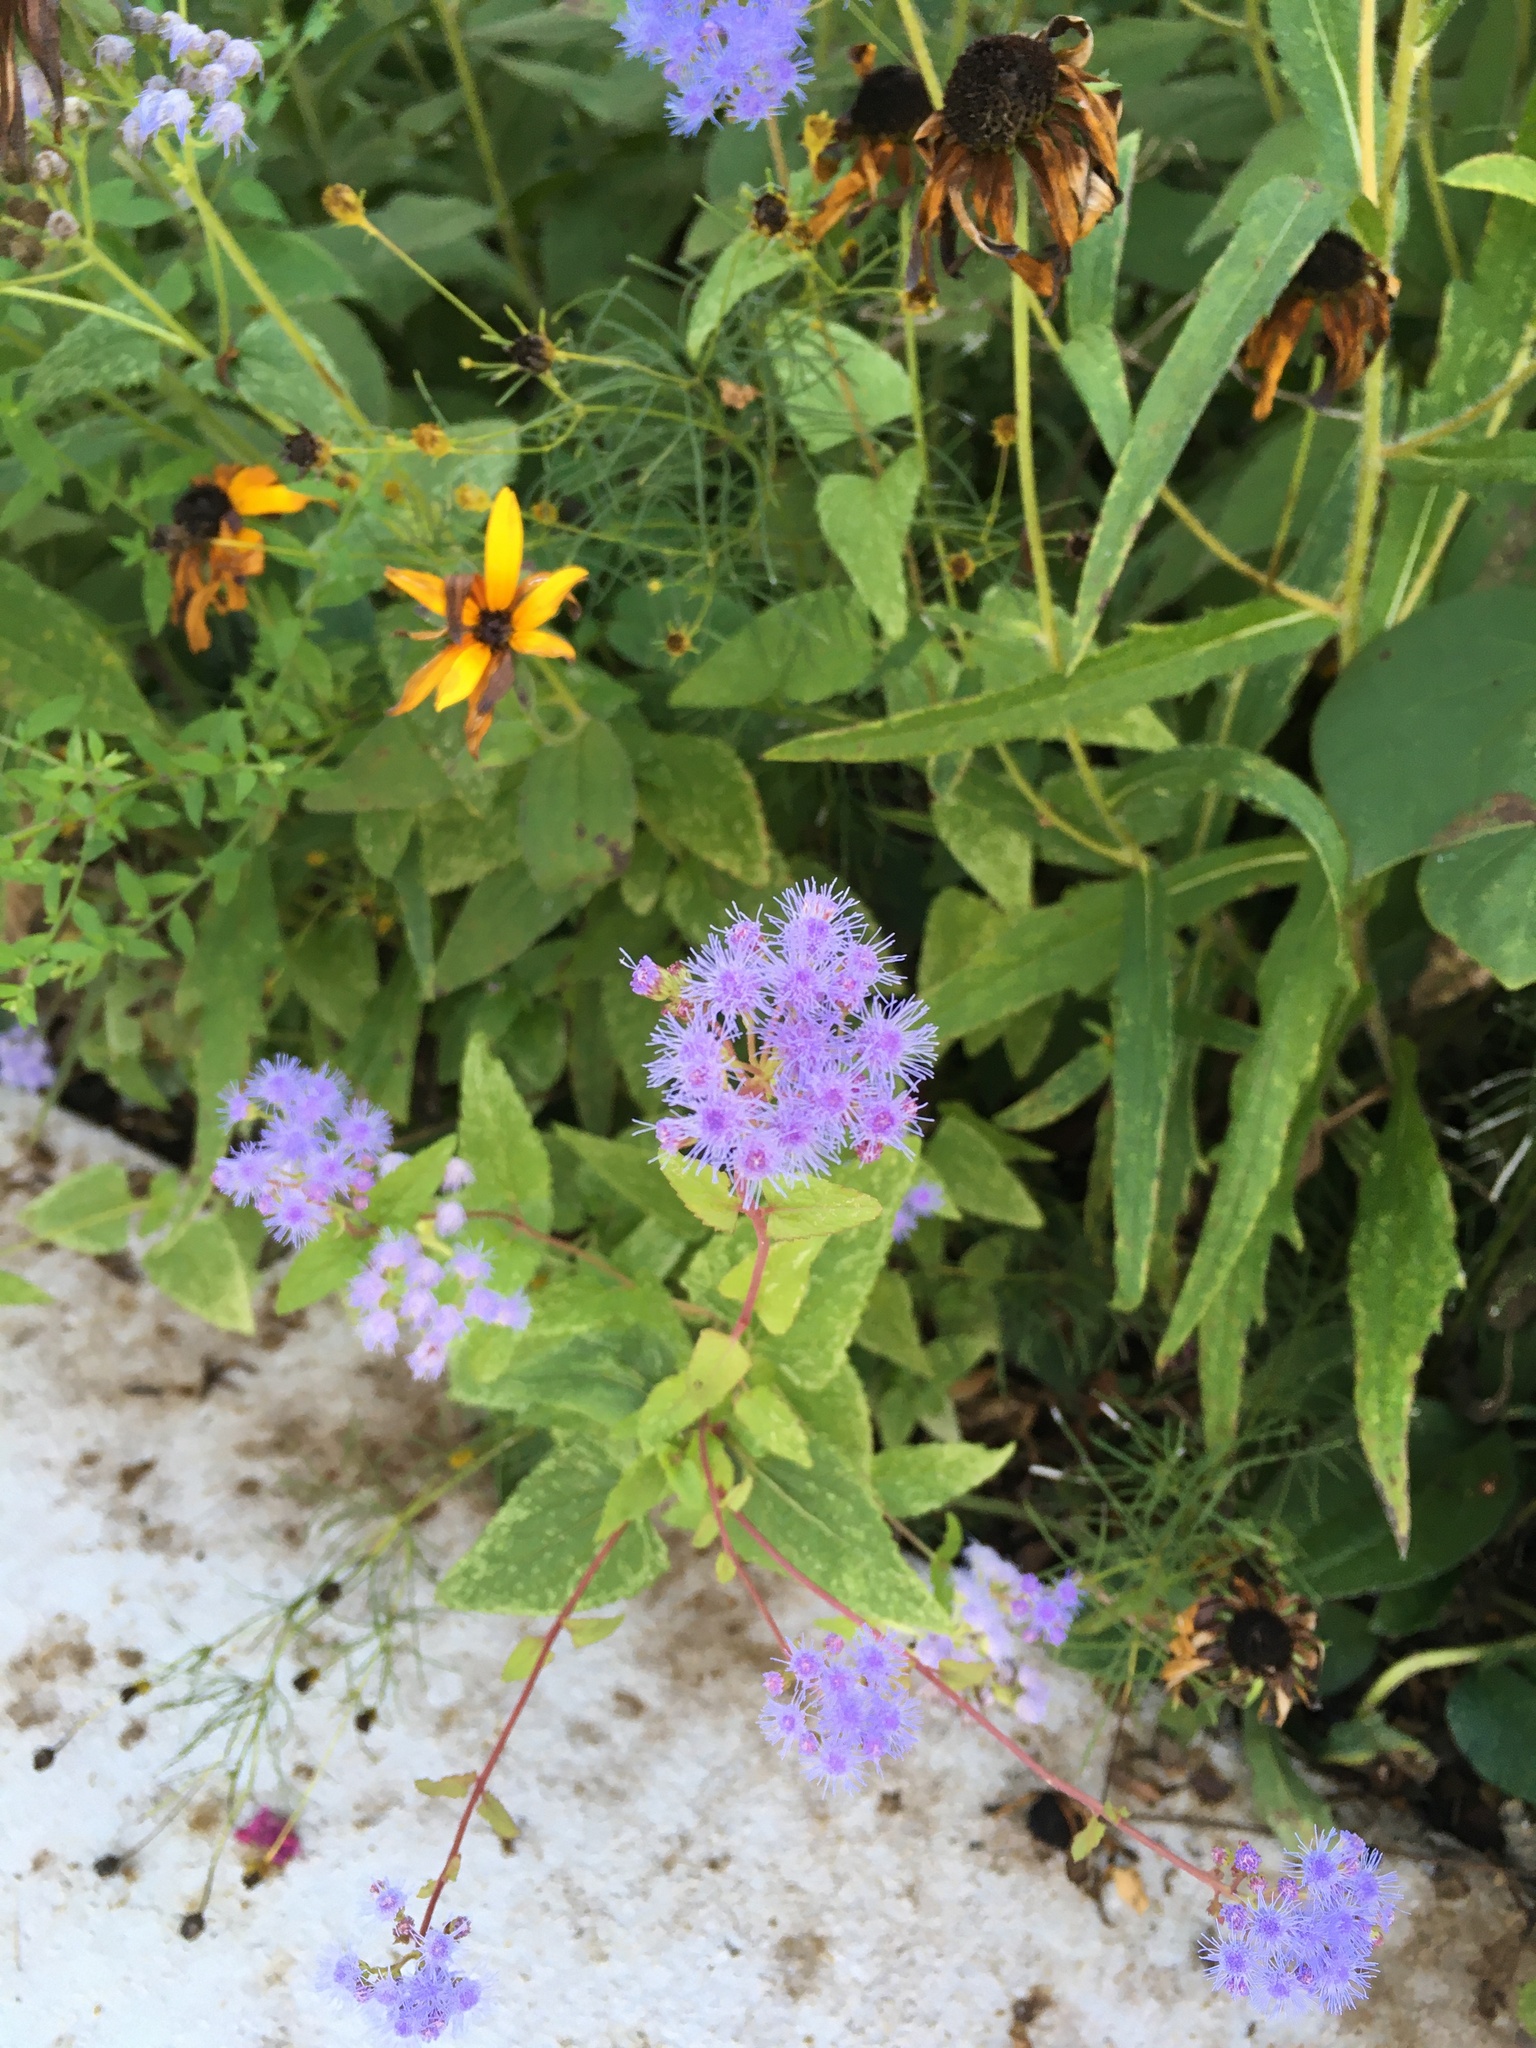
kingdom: Plantae
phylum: Tracheophyta
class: Magnoliopsida
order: Asterales
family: Asteraceae
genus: Conoclinium
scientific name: Conoclinium coelestinum
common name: Blue mistflower
